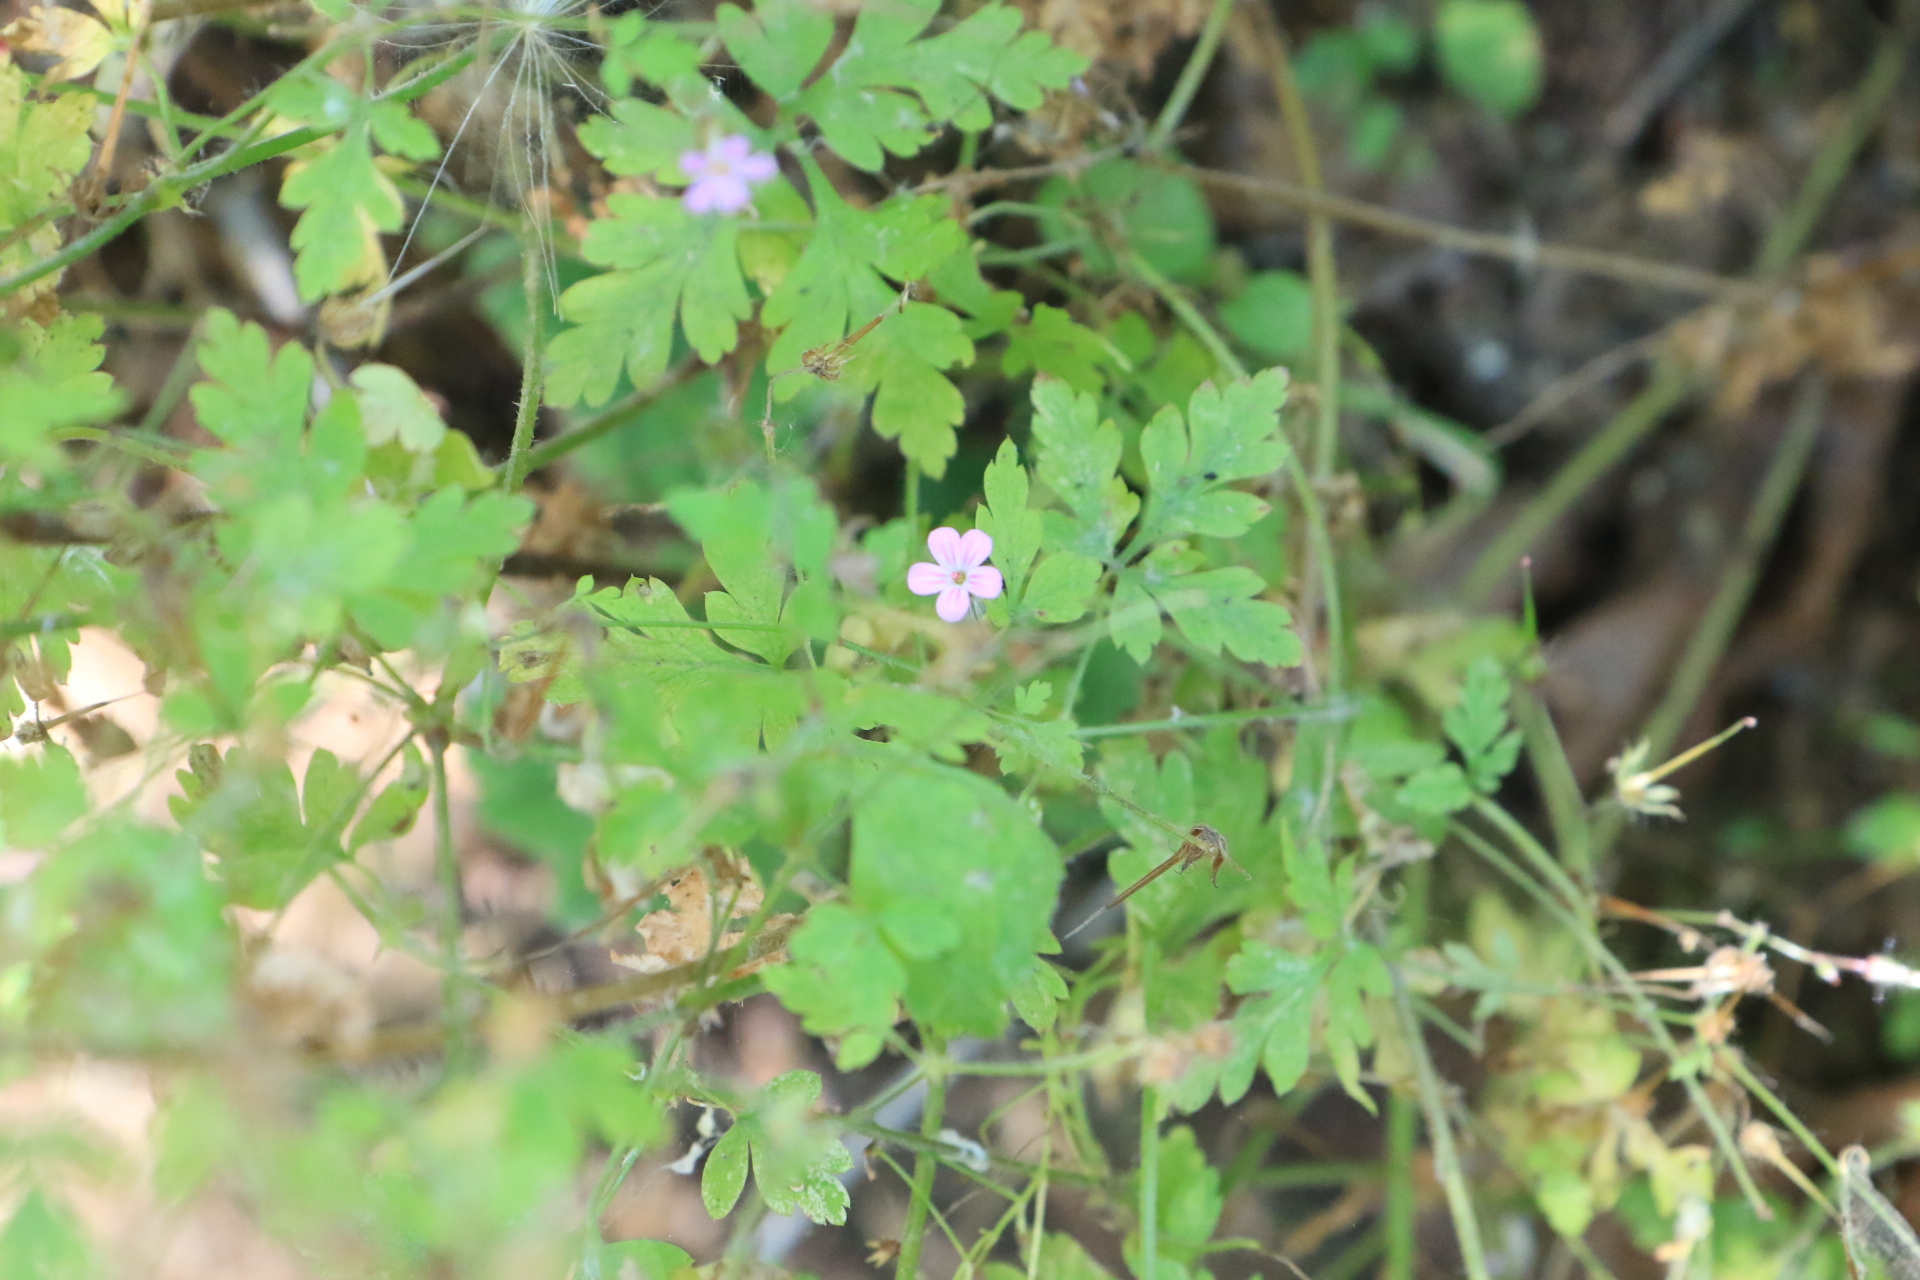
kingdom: Plantae
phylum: Tracheophyta
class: Magnoliopsida
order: Geraniales
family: Geraniaceae
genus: Geranium
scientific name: Geranium robertianum
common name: Herb-robert
